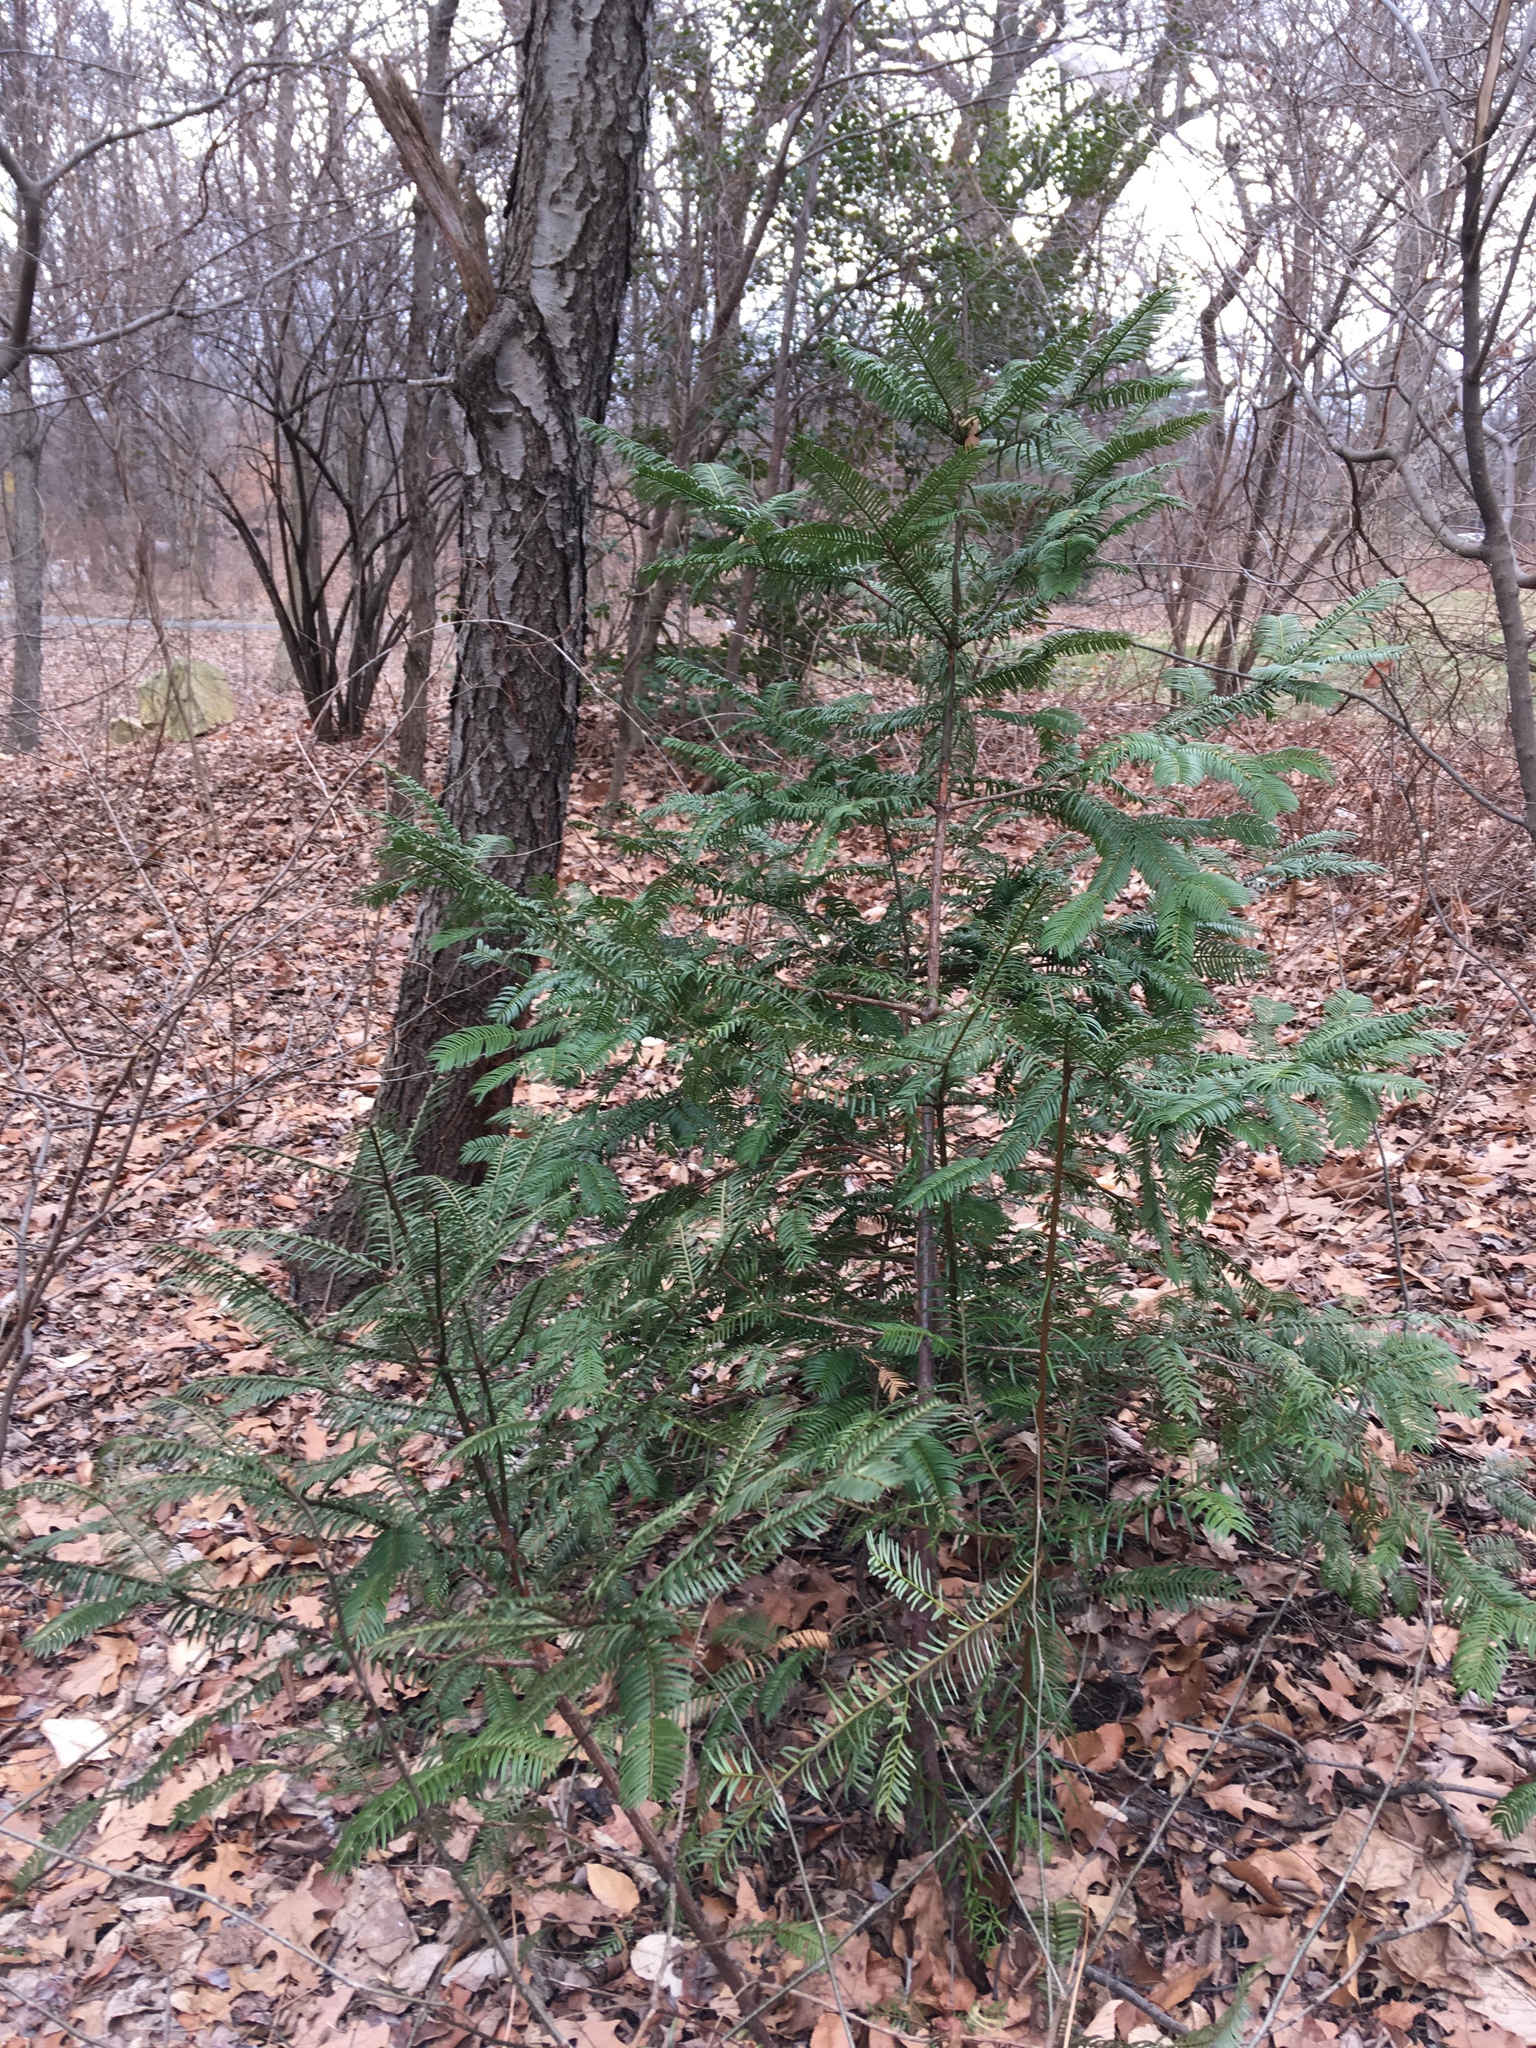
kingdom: Plantae
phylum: Tracheophyta
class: Pinopsida
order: Pinales
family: Cephalotaxaceae
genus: Cephalotaxus
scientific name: Cephalotaxus harringtonia
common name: Japanese plum-yew
